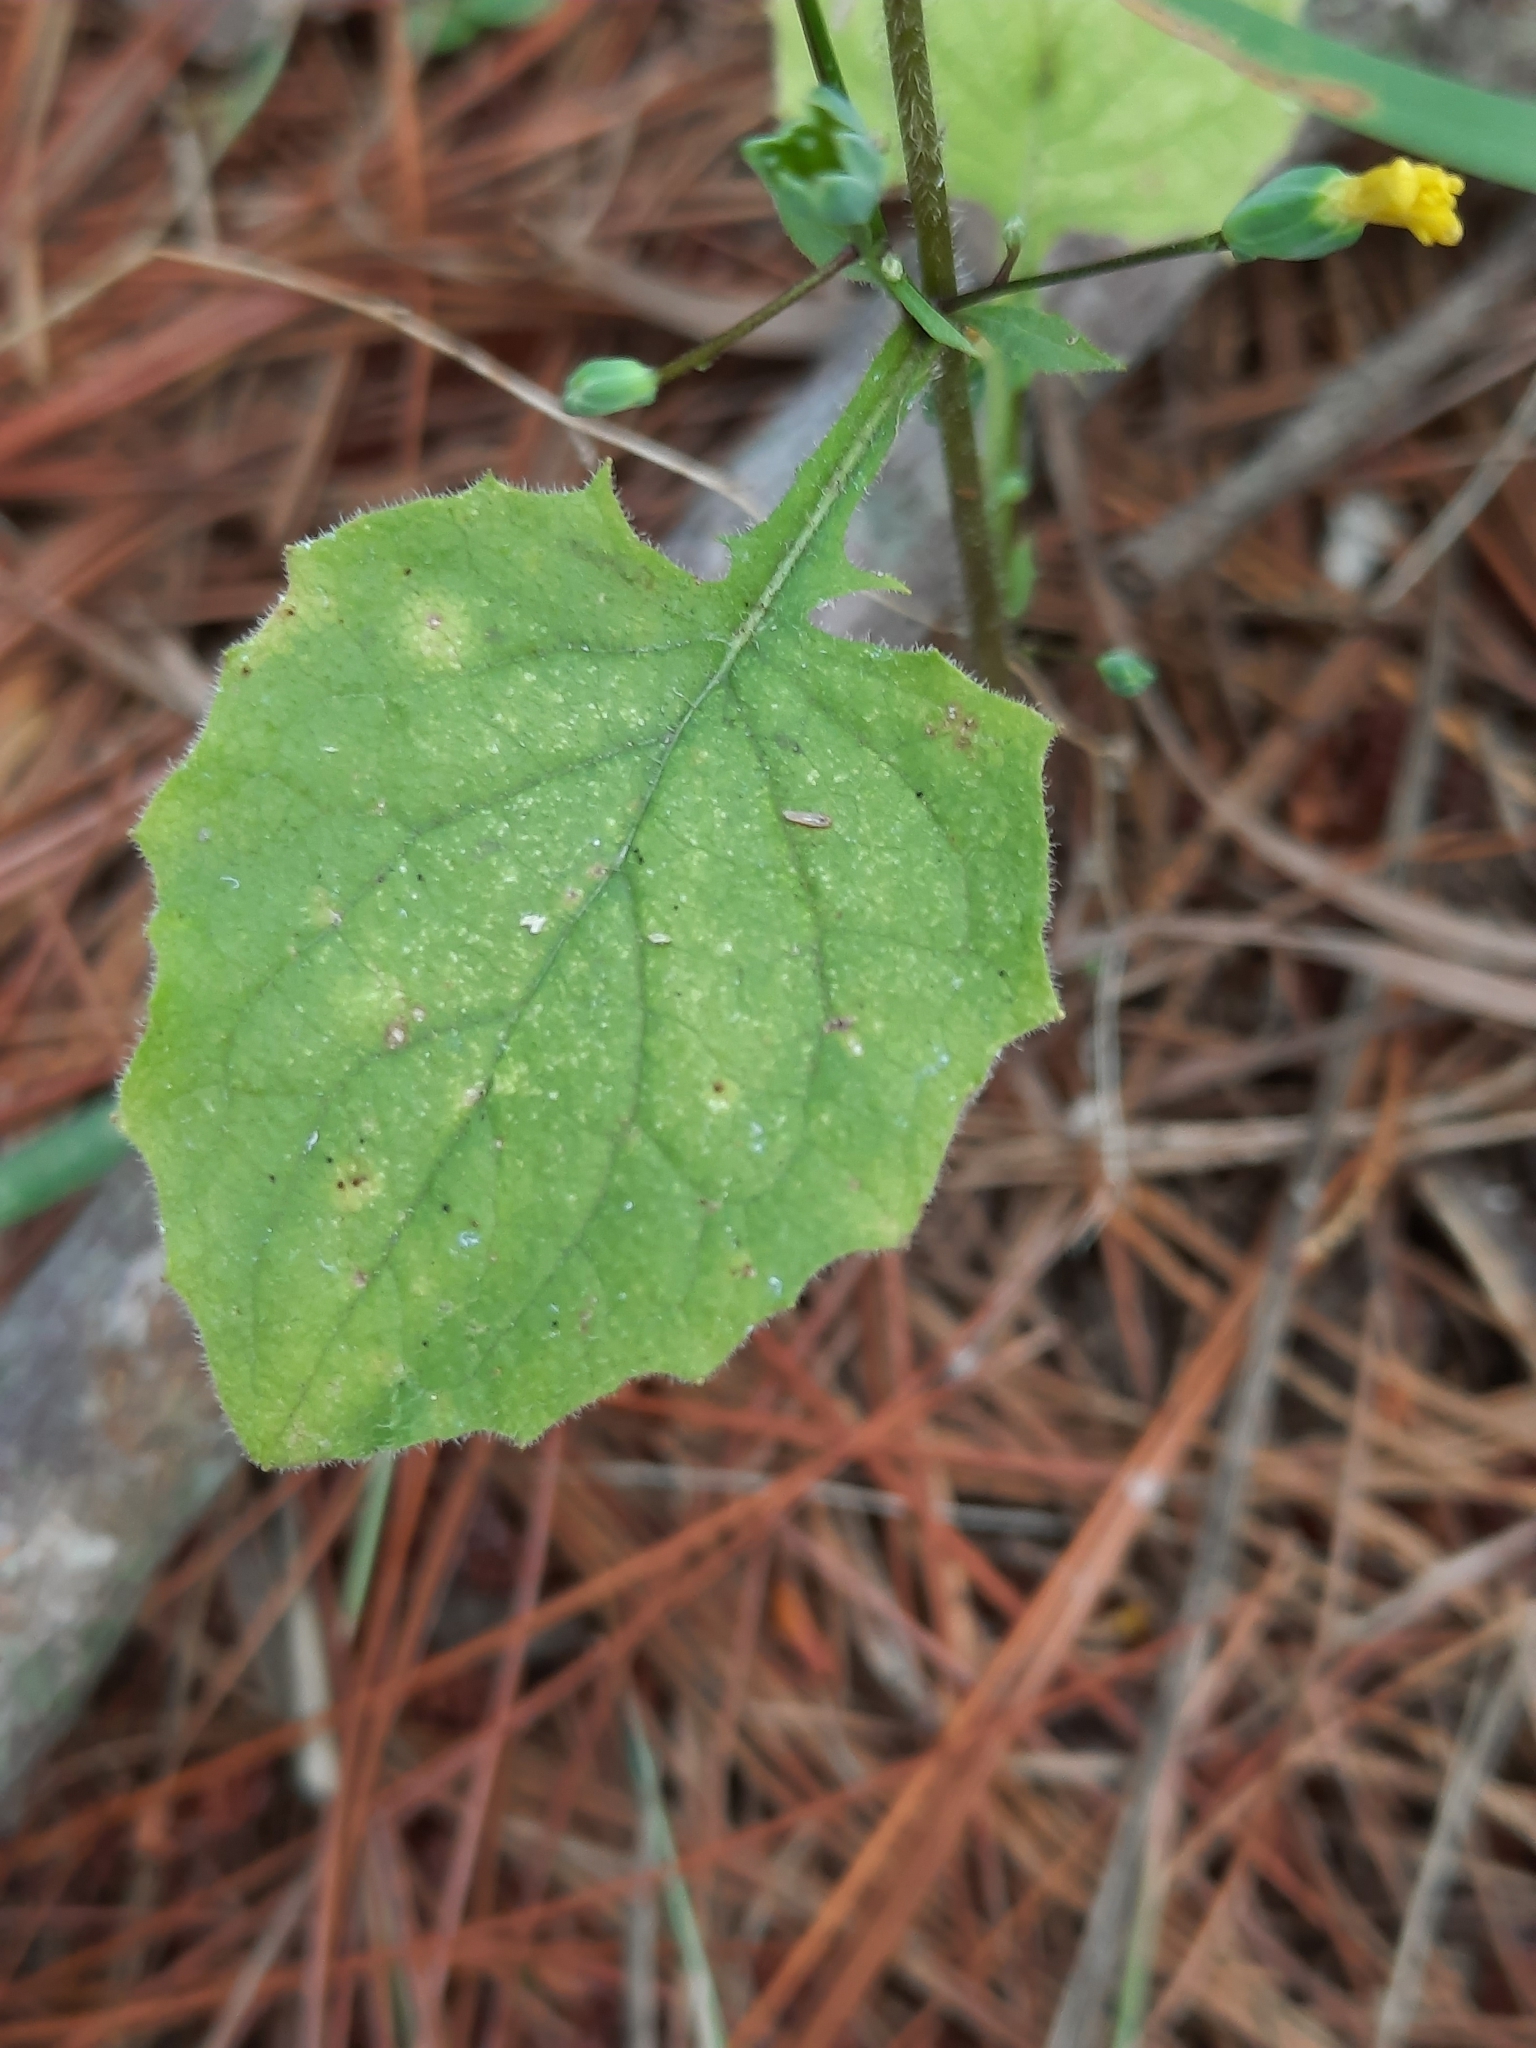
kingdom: Plantae
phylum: Tracheophyta
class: Magnoliopsida
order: Asterales
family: Asteraceae
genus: Lapsana
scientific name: Lapsana communis
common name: Nipplewort
